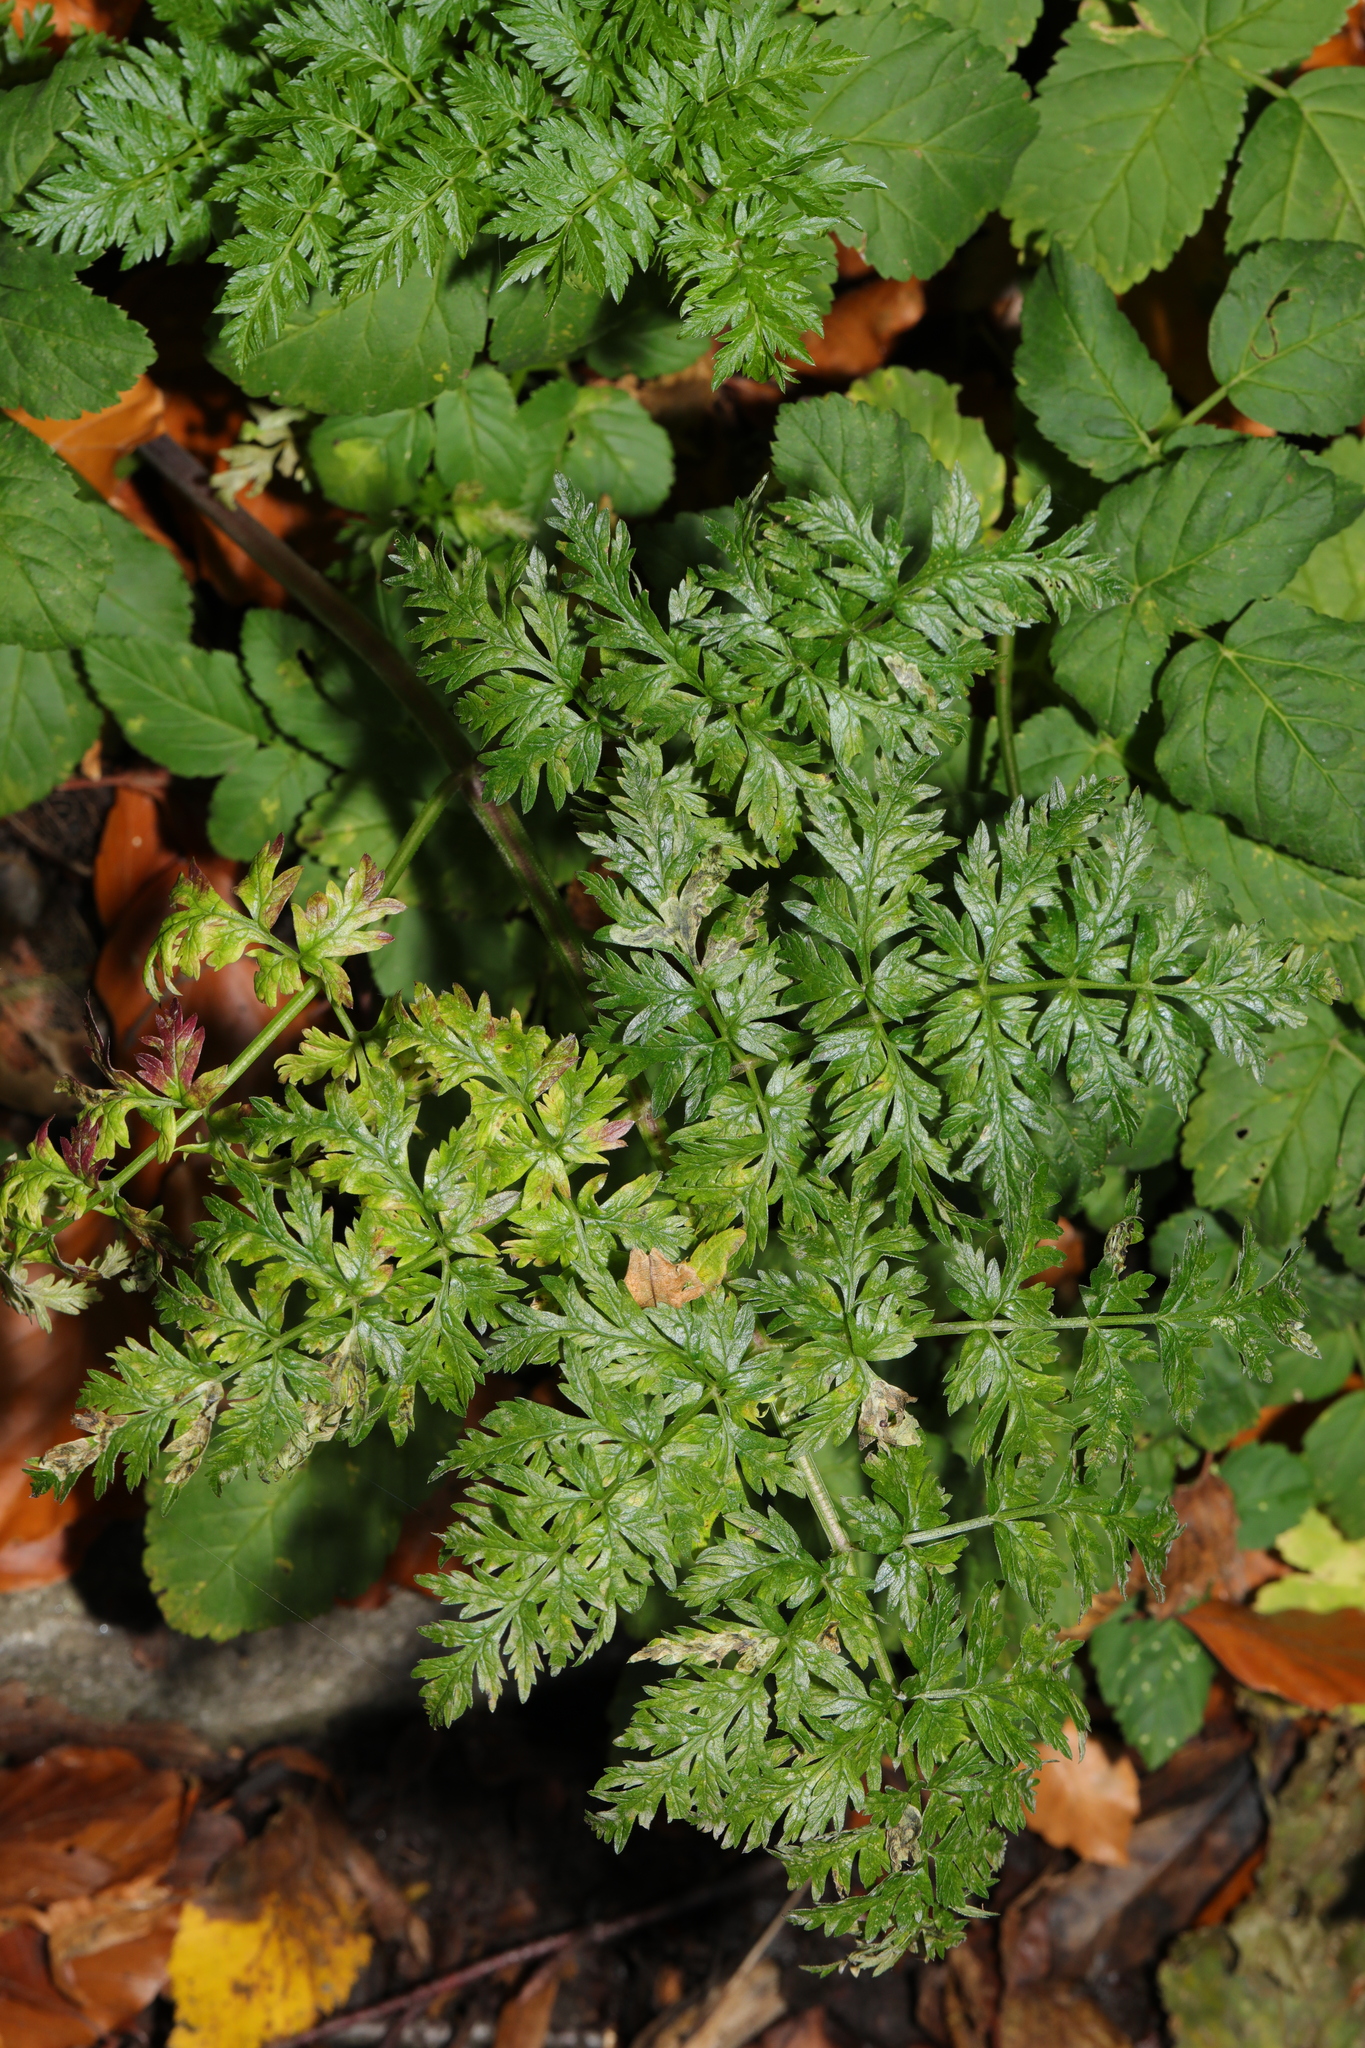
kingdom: Plantae
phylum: Tracheophyta
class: Magnoliopsida
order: Apiales
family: Apiaceae
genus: Anthriscus
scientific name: Anthriscus sylvestris
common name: Cow parsley
